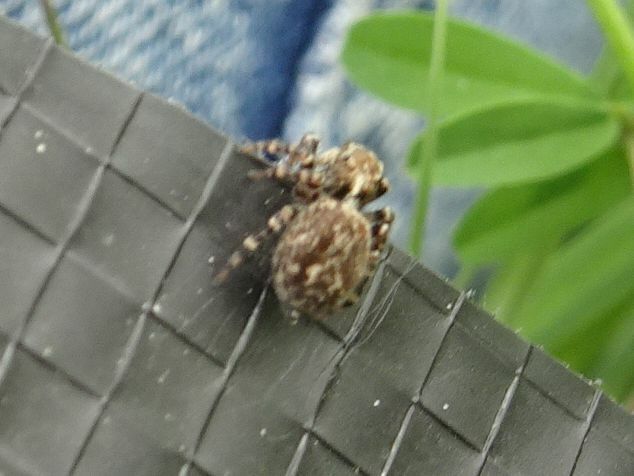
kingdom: Animalia
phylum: Arthropoda
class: Arachnida
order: Araneae
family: Salticidae
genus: Pseudeuophrys
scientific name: Pseudeuophrys erratica
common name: Jumping spider
